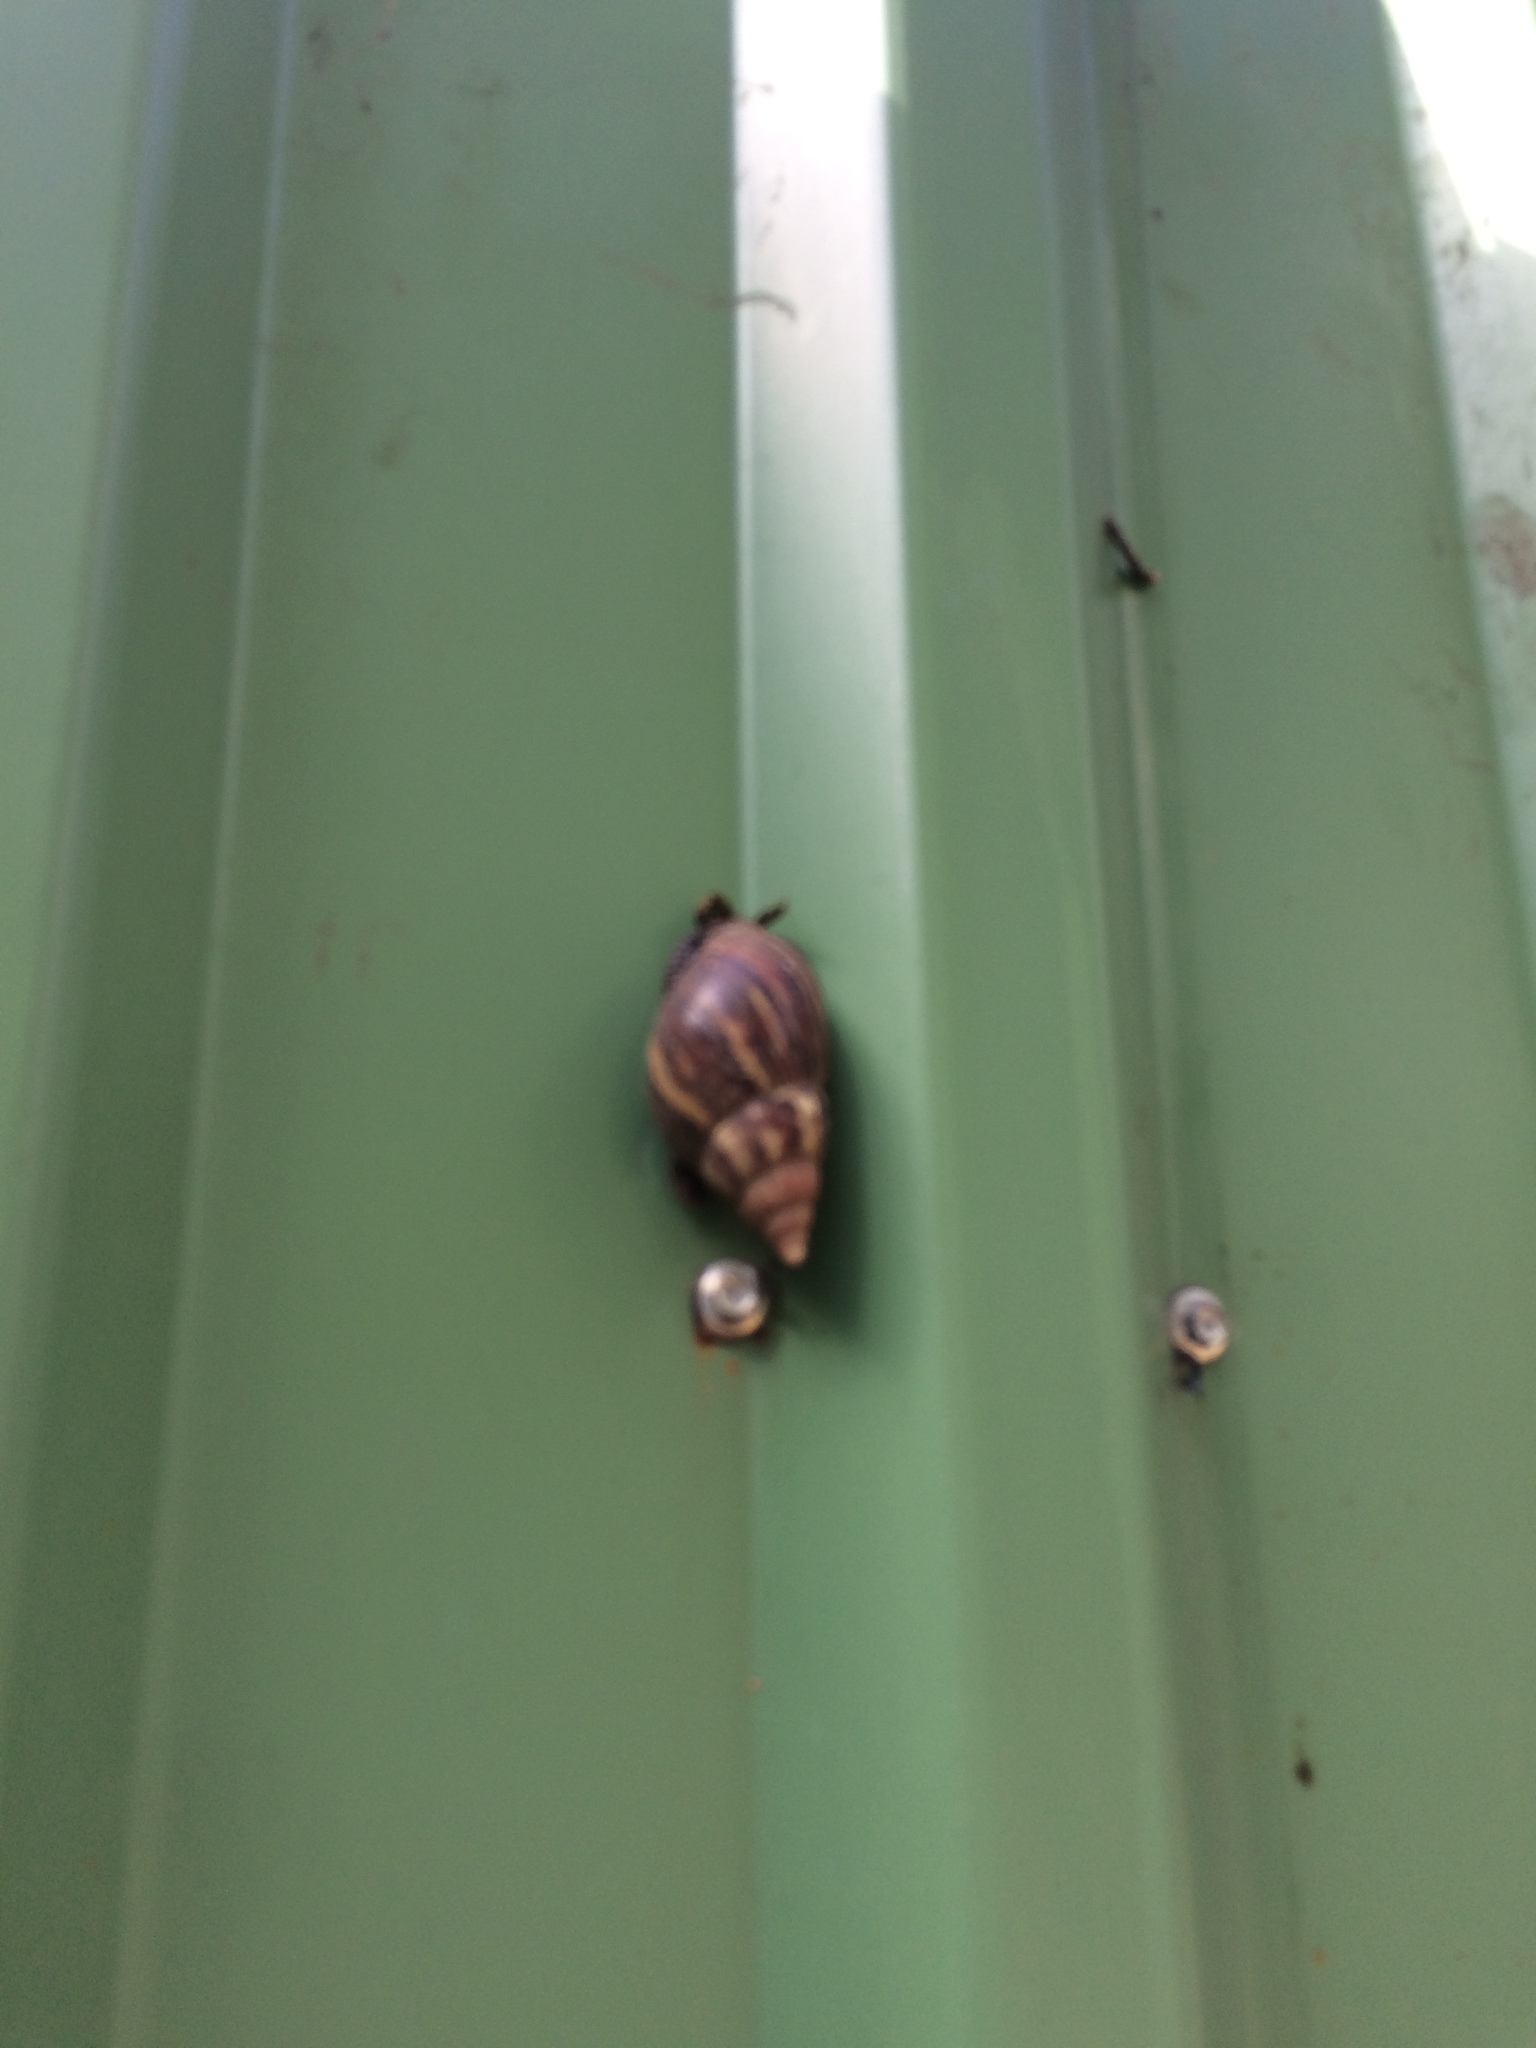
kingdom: Animalia
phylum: Mollusca
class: Gastropoda
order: Stylommatophora
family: Achatinidae
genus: Lissachatina
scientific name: Lissachatina fulica
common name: Giant african snail
